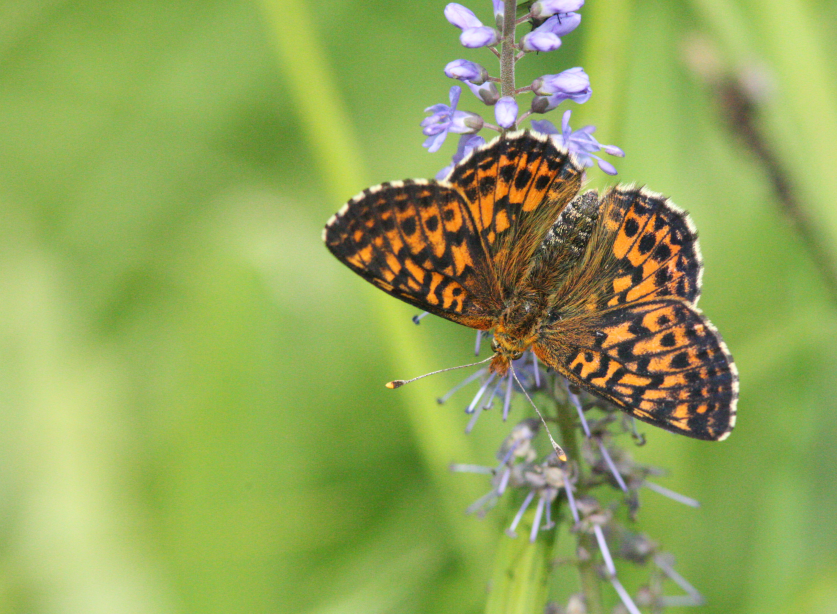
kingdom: Animalia
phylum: Arthropoda
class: Insecta
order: Lepidoptera
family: Nymphalidae
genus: Boloria
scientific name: Boloria aquilonaris
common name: Cranberry fritillary
